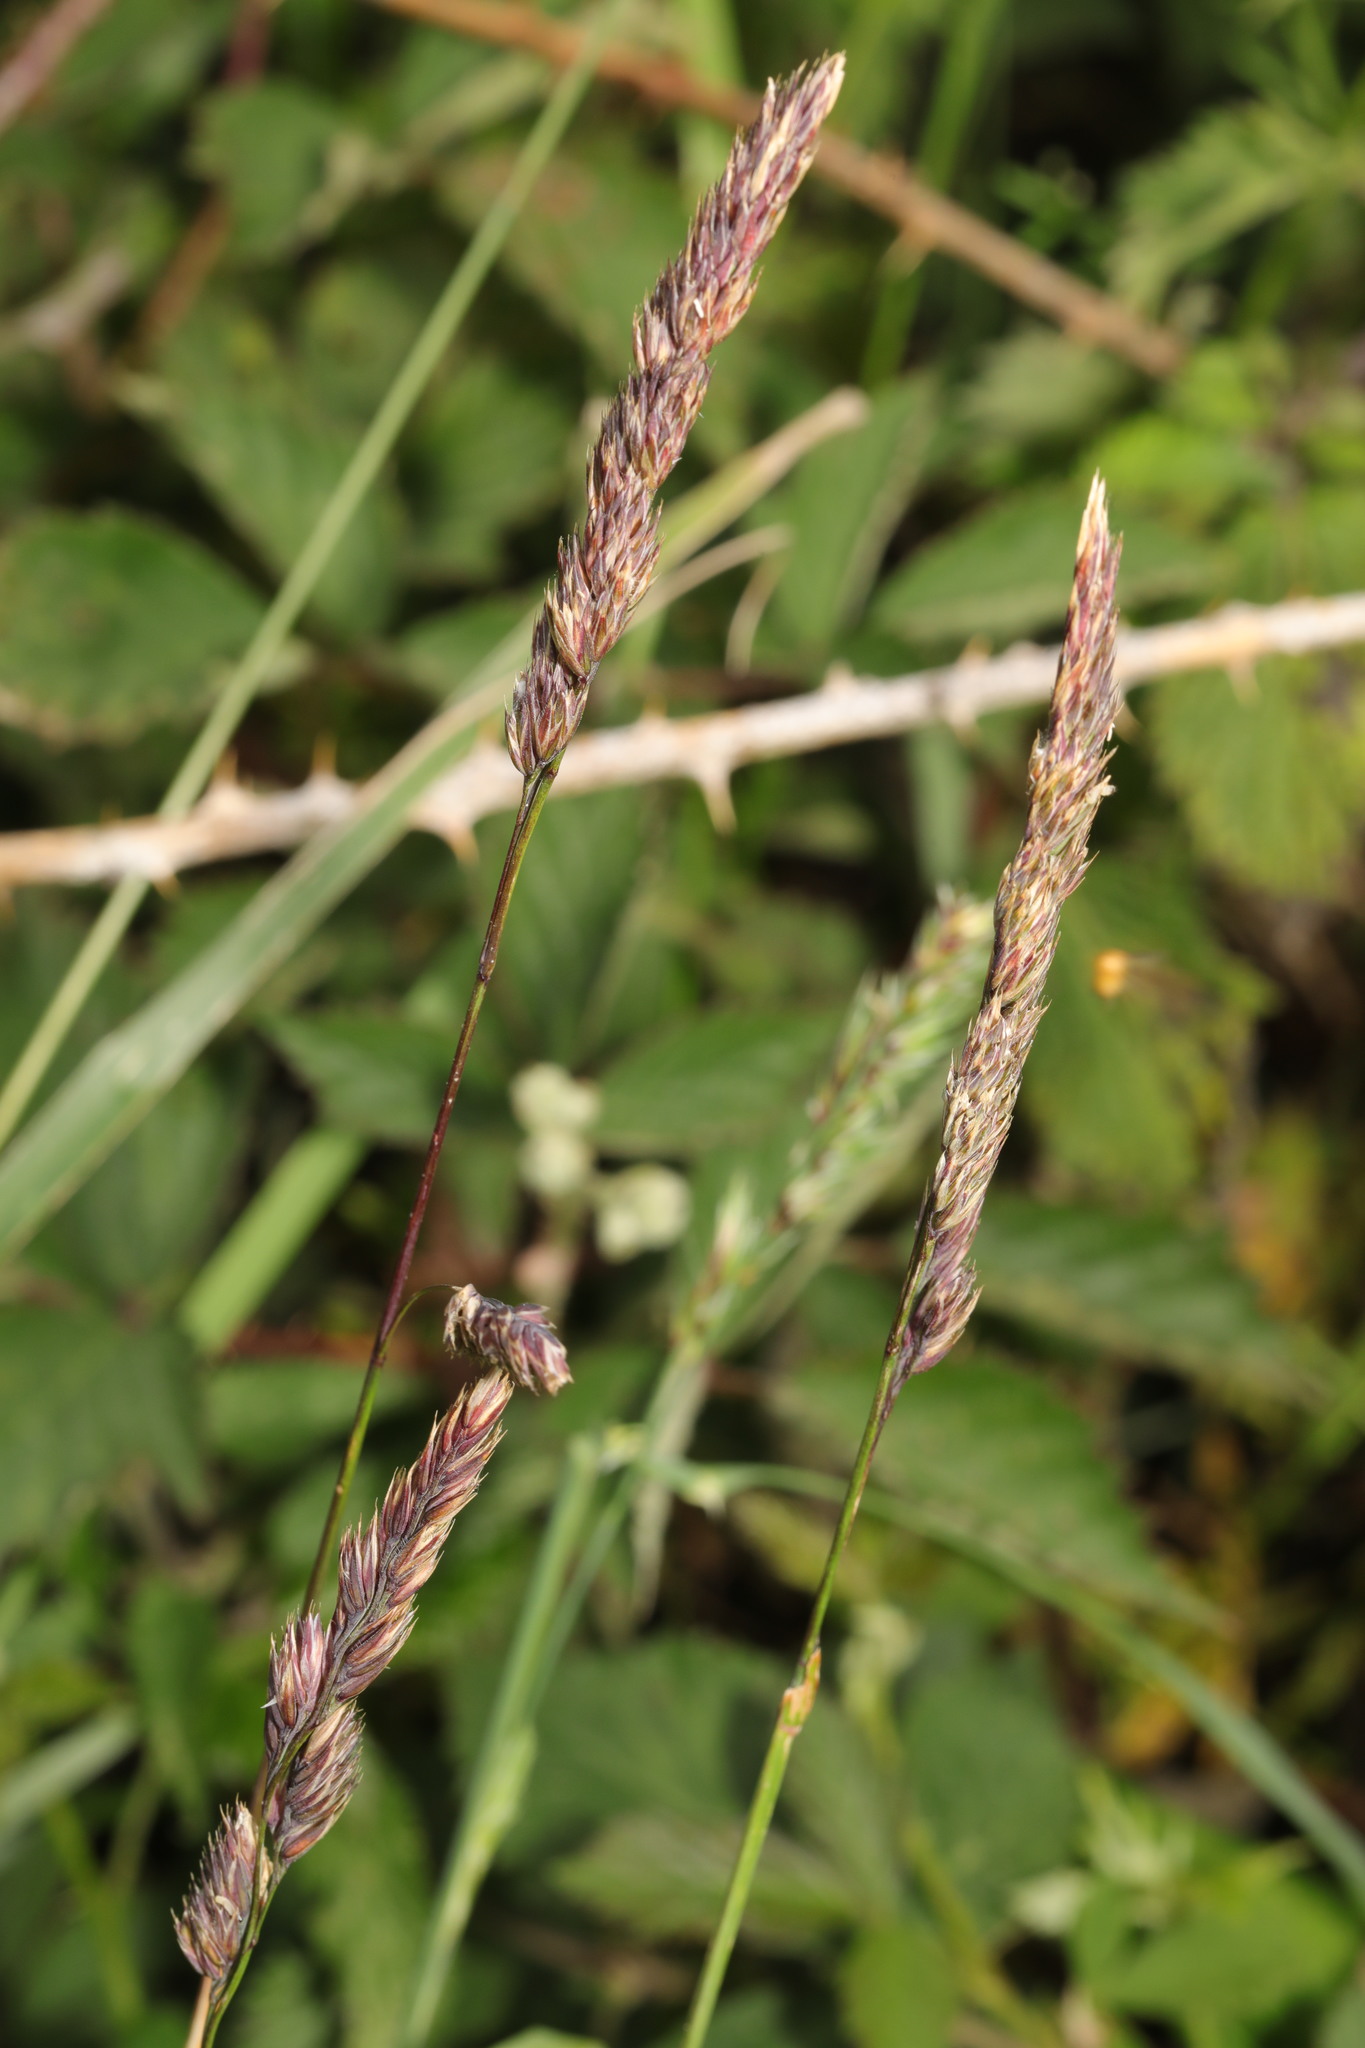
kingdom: Plantae
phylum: Tracheophyta
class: Liliopsida
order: Poales
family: Poaceae
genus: Dactylis
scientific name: Dactylis glomerata
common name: Orchardgrass
